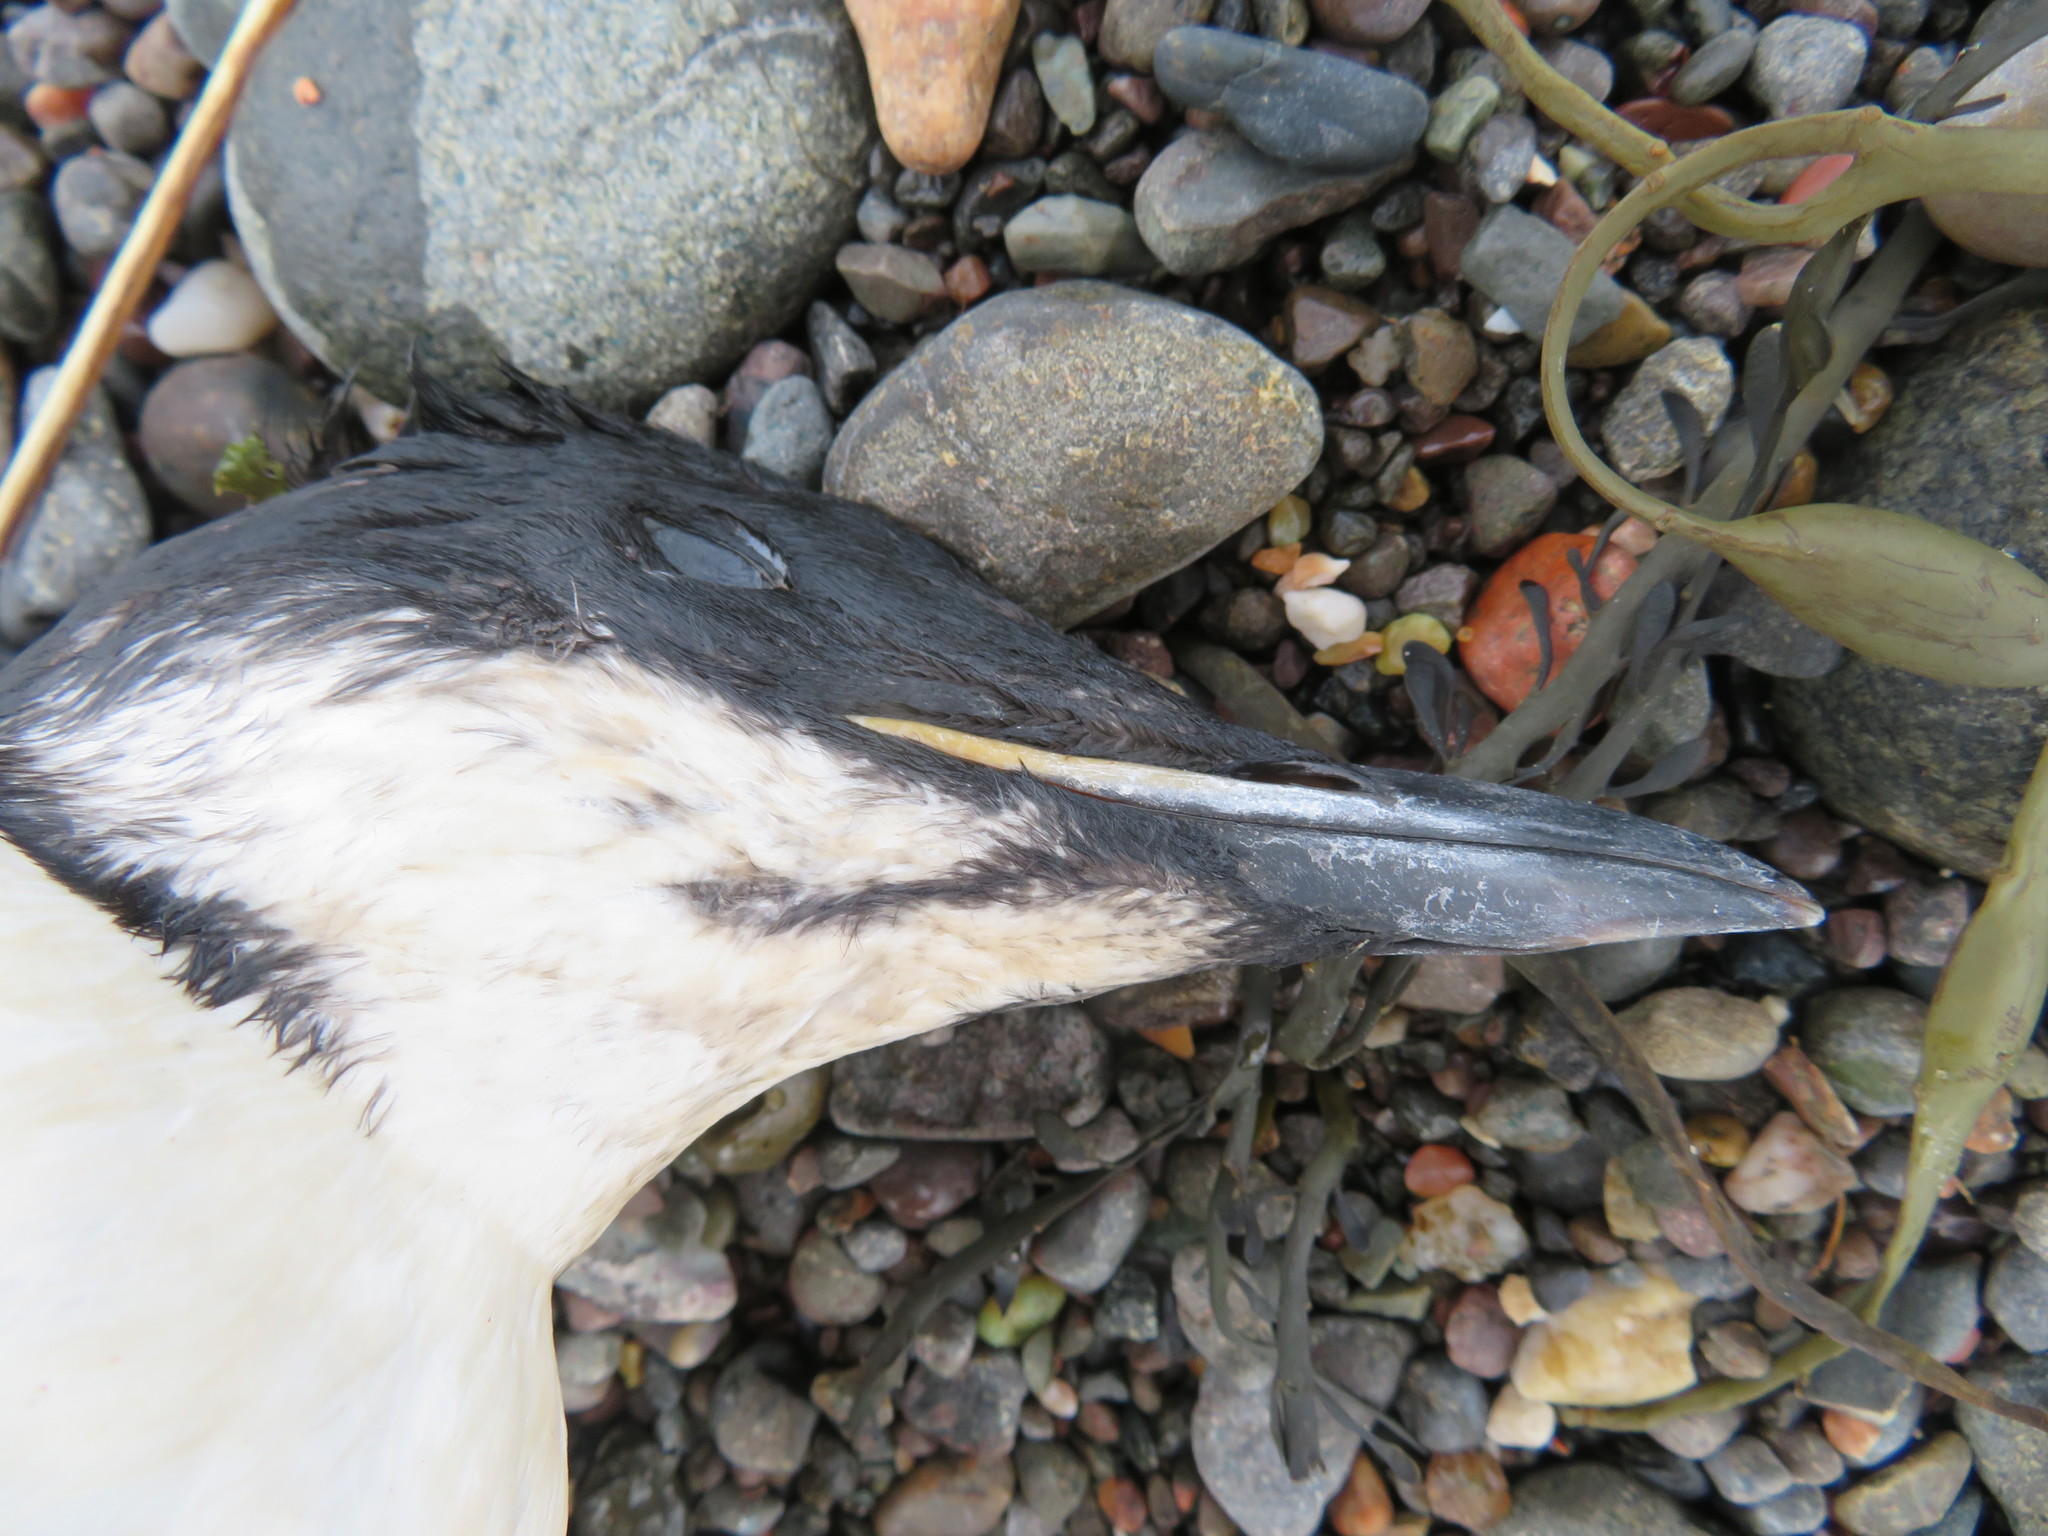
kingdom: Animalia
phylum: Chordata
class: Aves
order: Charadriiformes
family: Alcidae
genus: Uria
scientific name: Uria lomvia
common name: Thick-billed murre
